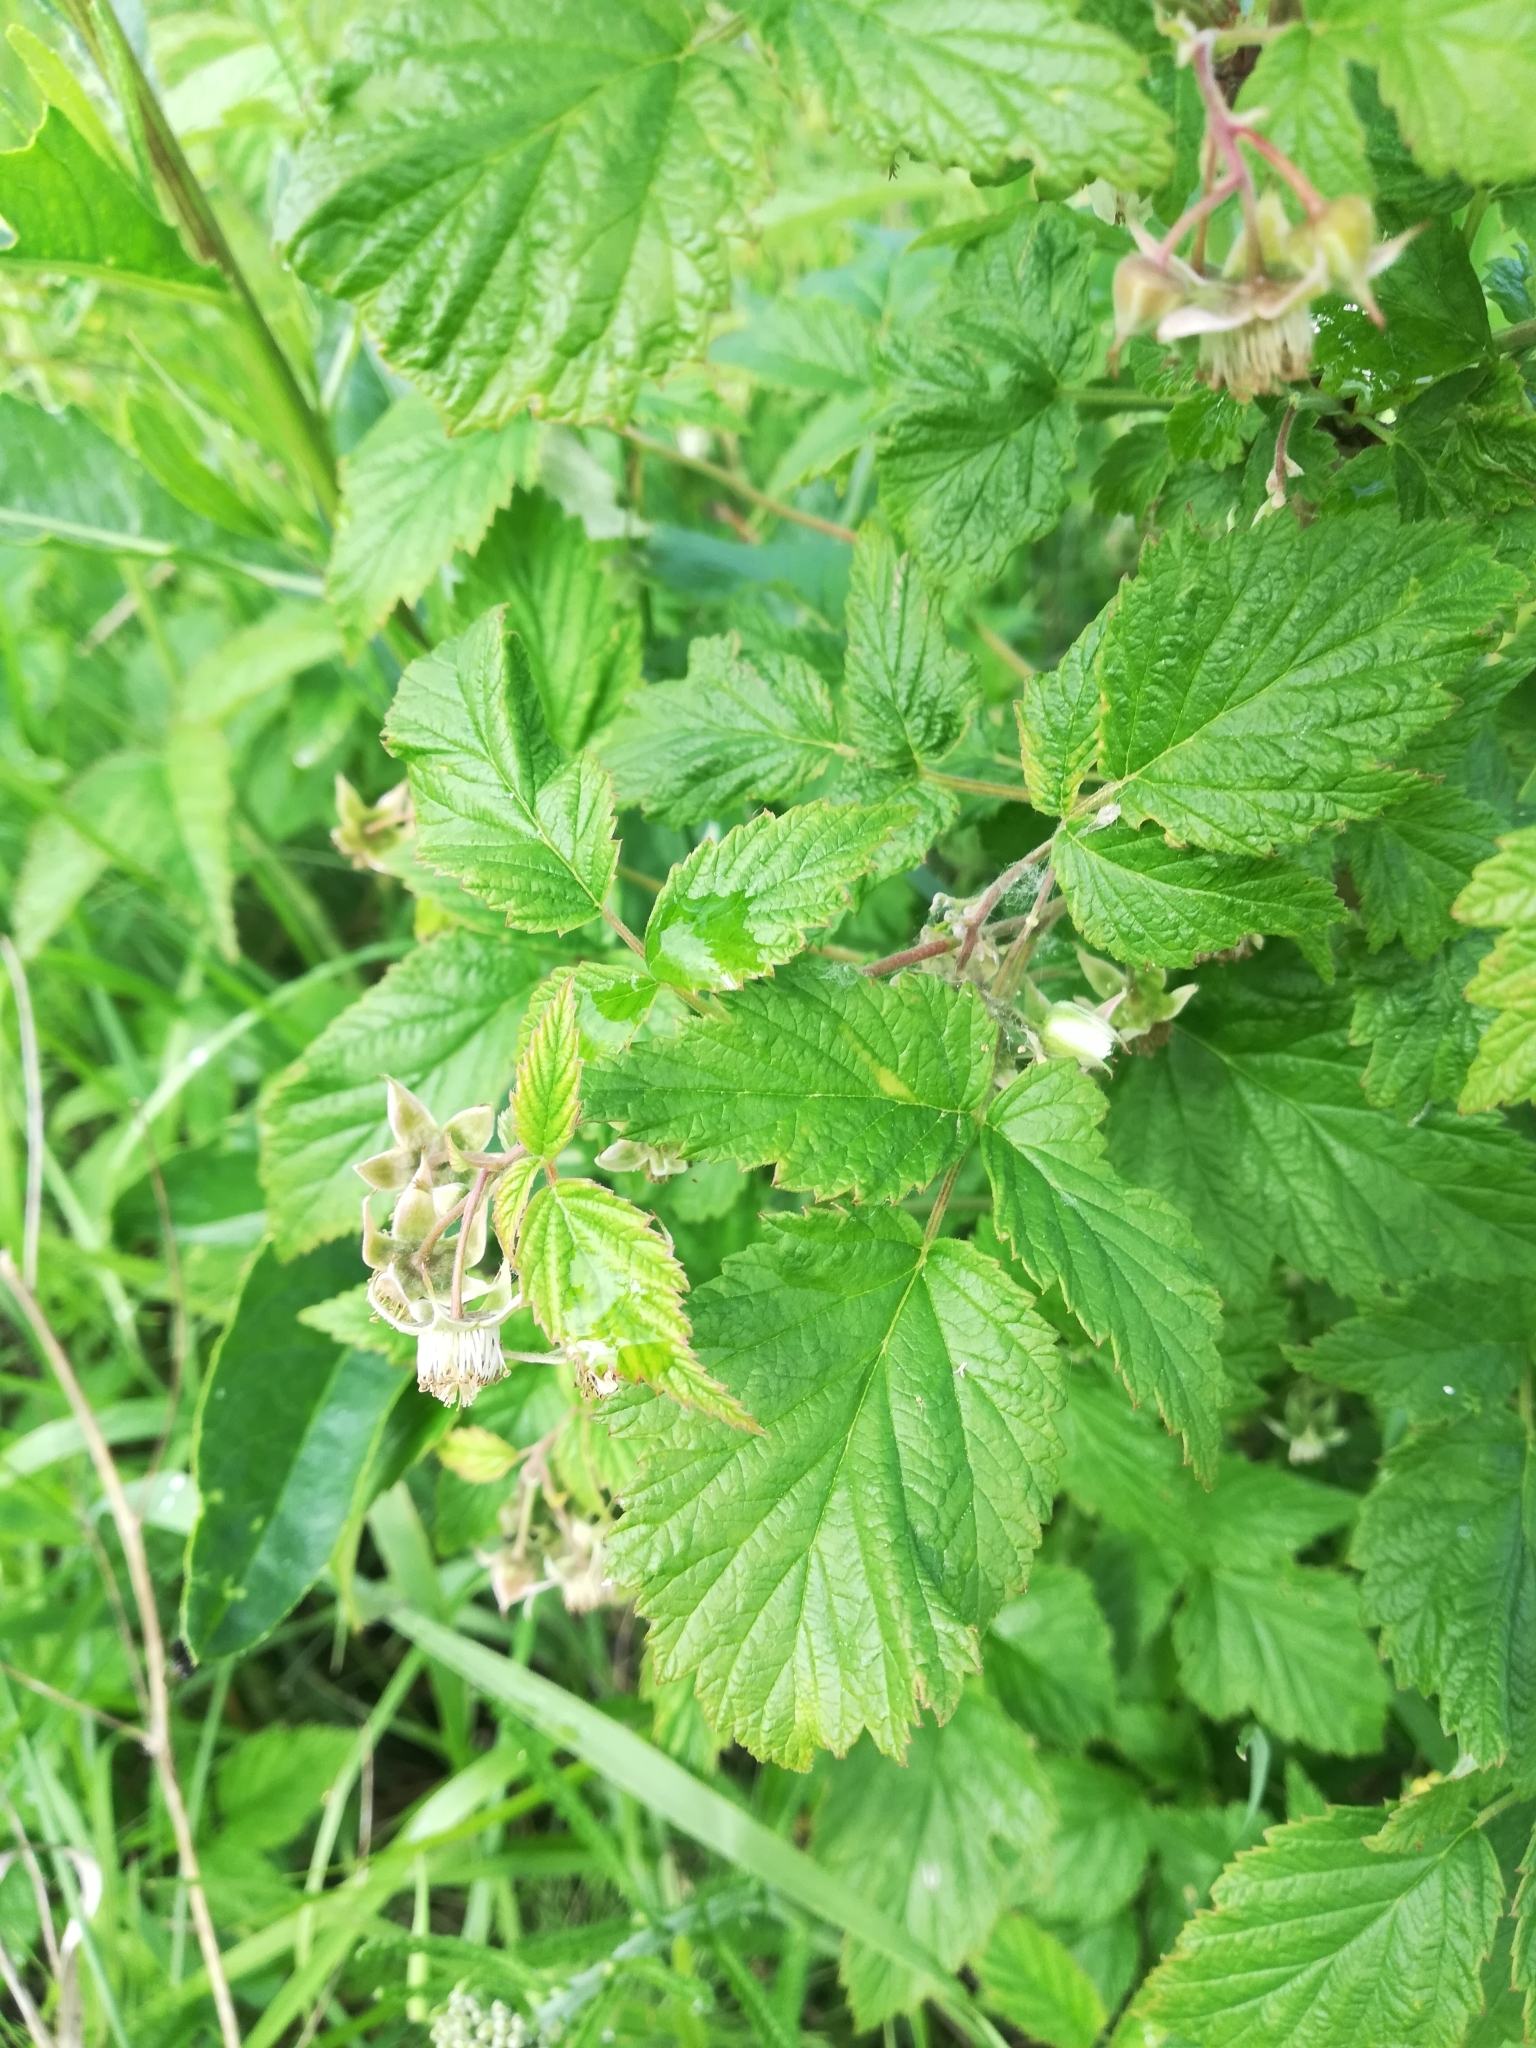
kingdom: Plantae
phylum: Tracheophyta
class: Magnoliopsida
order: Rosales
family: Rosaceae
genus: Rubus
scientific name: Rubus idaeus
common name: Raspberry
